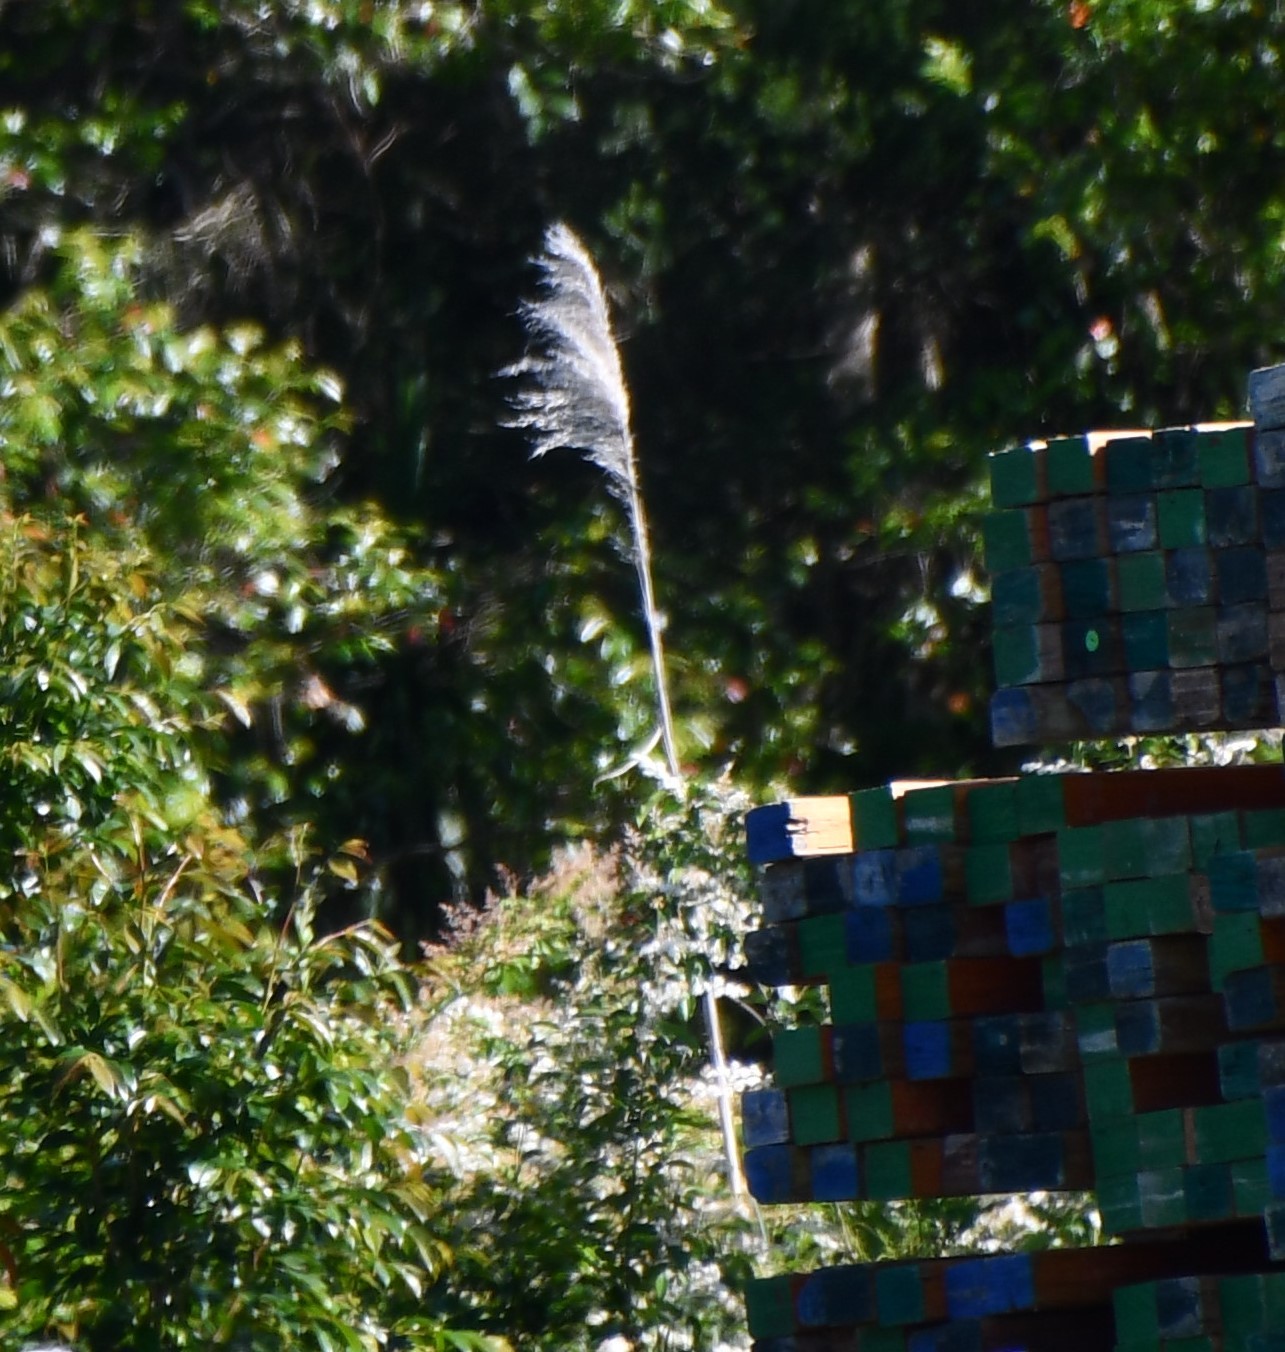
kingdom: Plantae
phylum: Tracheophyta
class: Liliopsida
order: Poales
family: Poaceae
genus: Cortaderia
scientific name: Cortaderia selloana
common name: Uruguayan pampas grass
